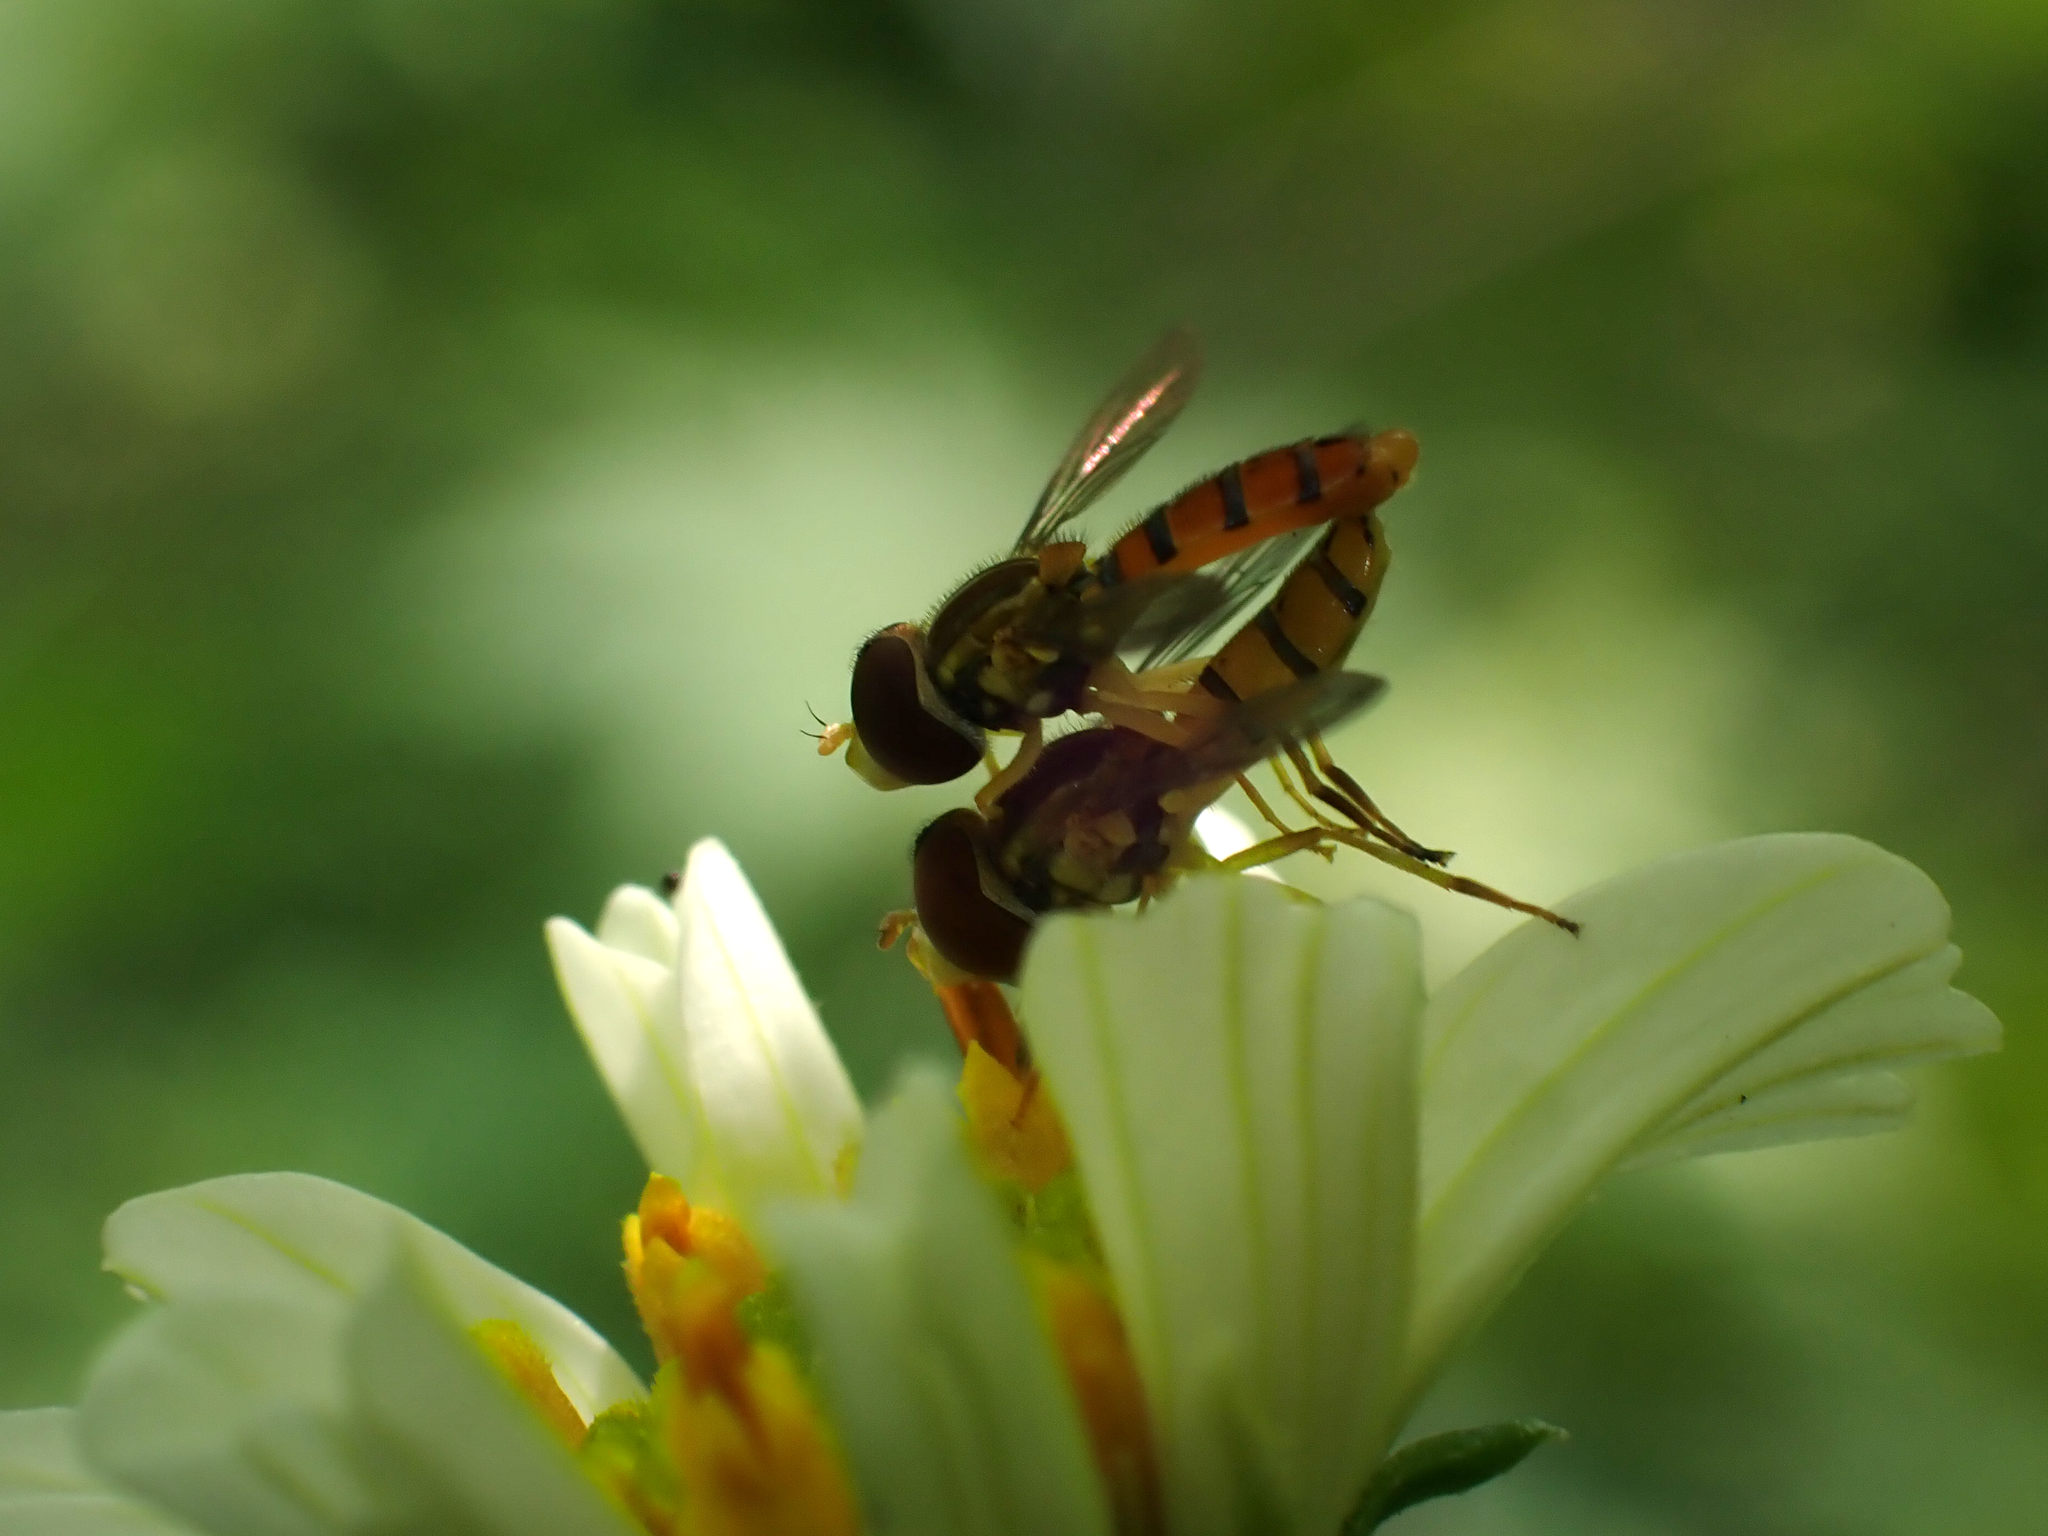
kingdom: Animalia
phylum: Arthropoda
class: Insecta
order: Diptera
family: Syrphidae
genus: Toxomerus
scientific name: Toxomerus corbis
